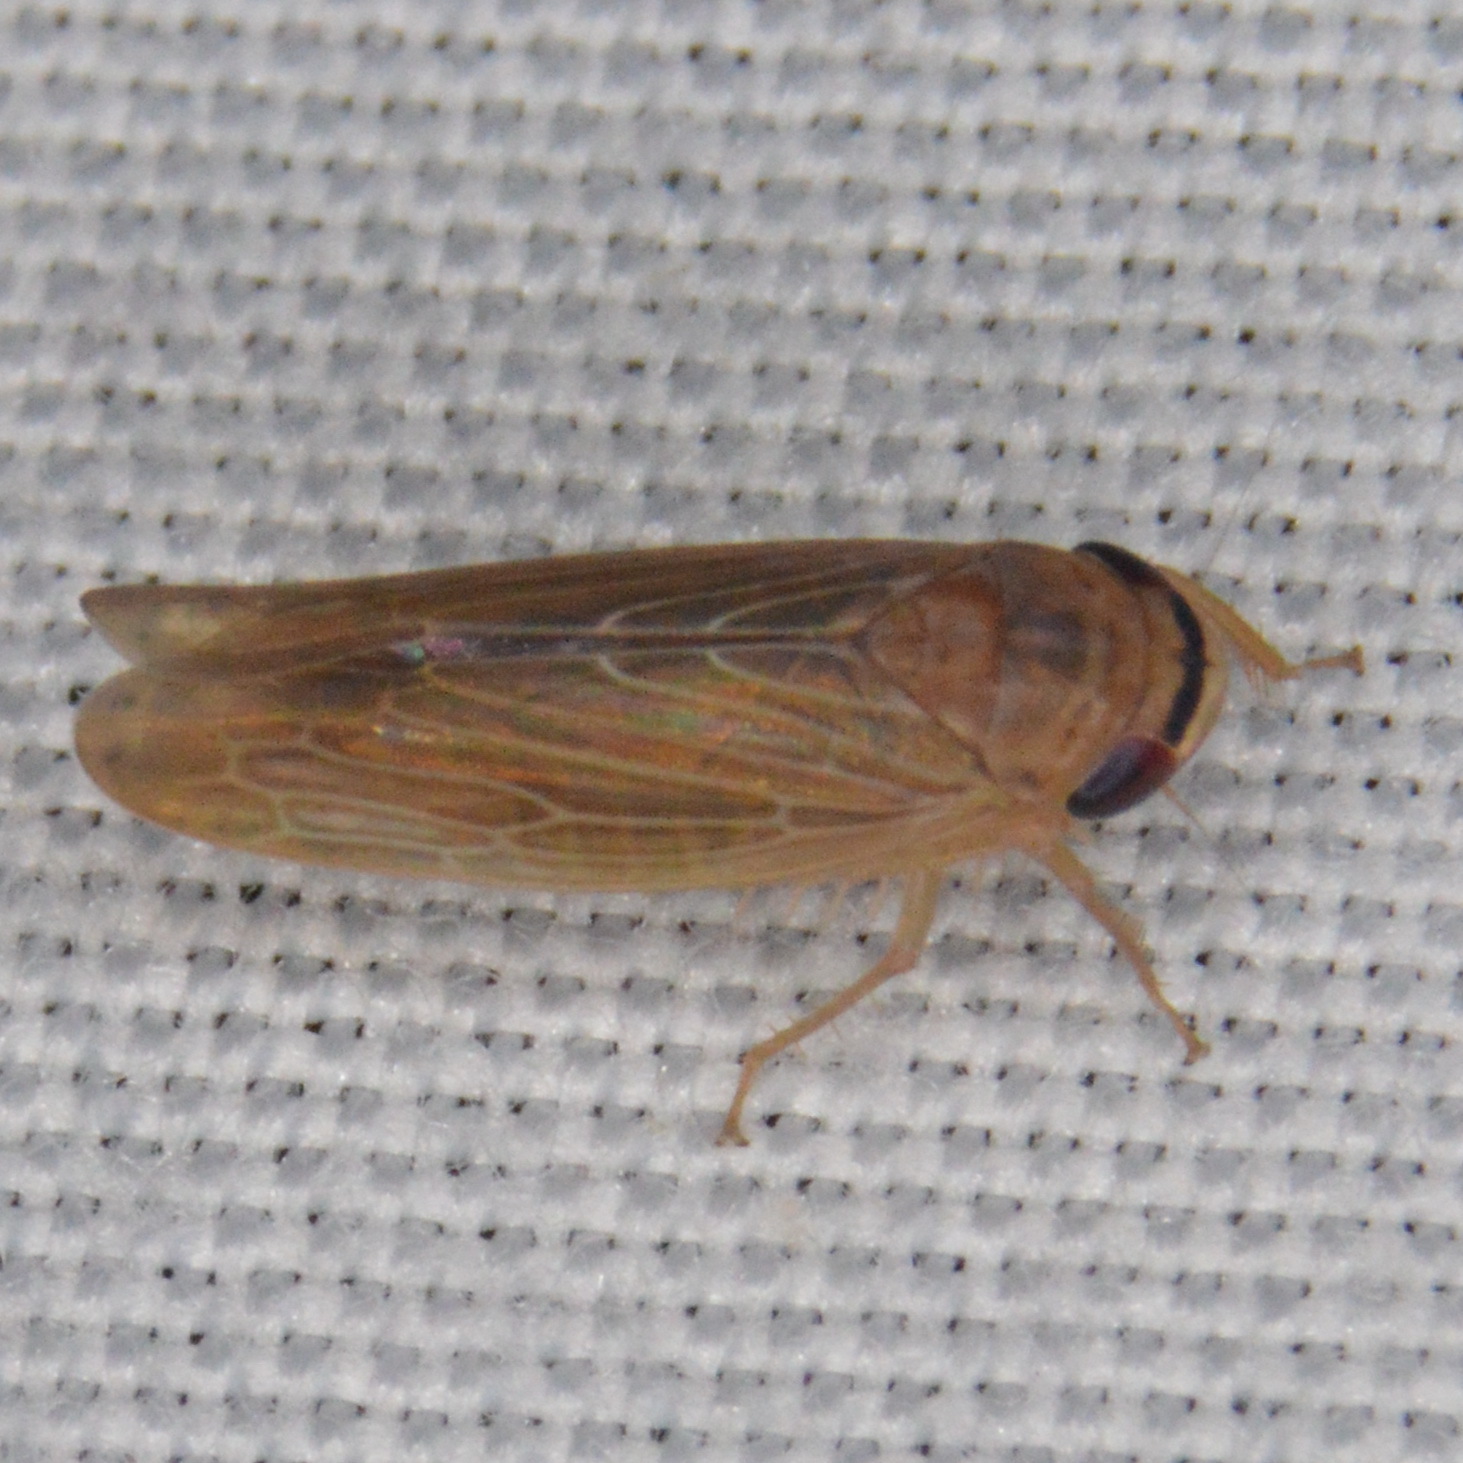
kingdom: Animalia
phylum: Arthropoda
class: Insecta
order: Hemiptera
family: Cicadellidae
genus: Chlorotettix
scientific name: Chlorotettix necopinus
